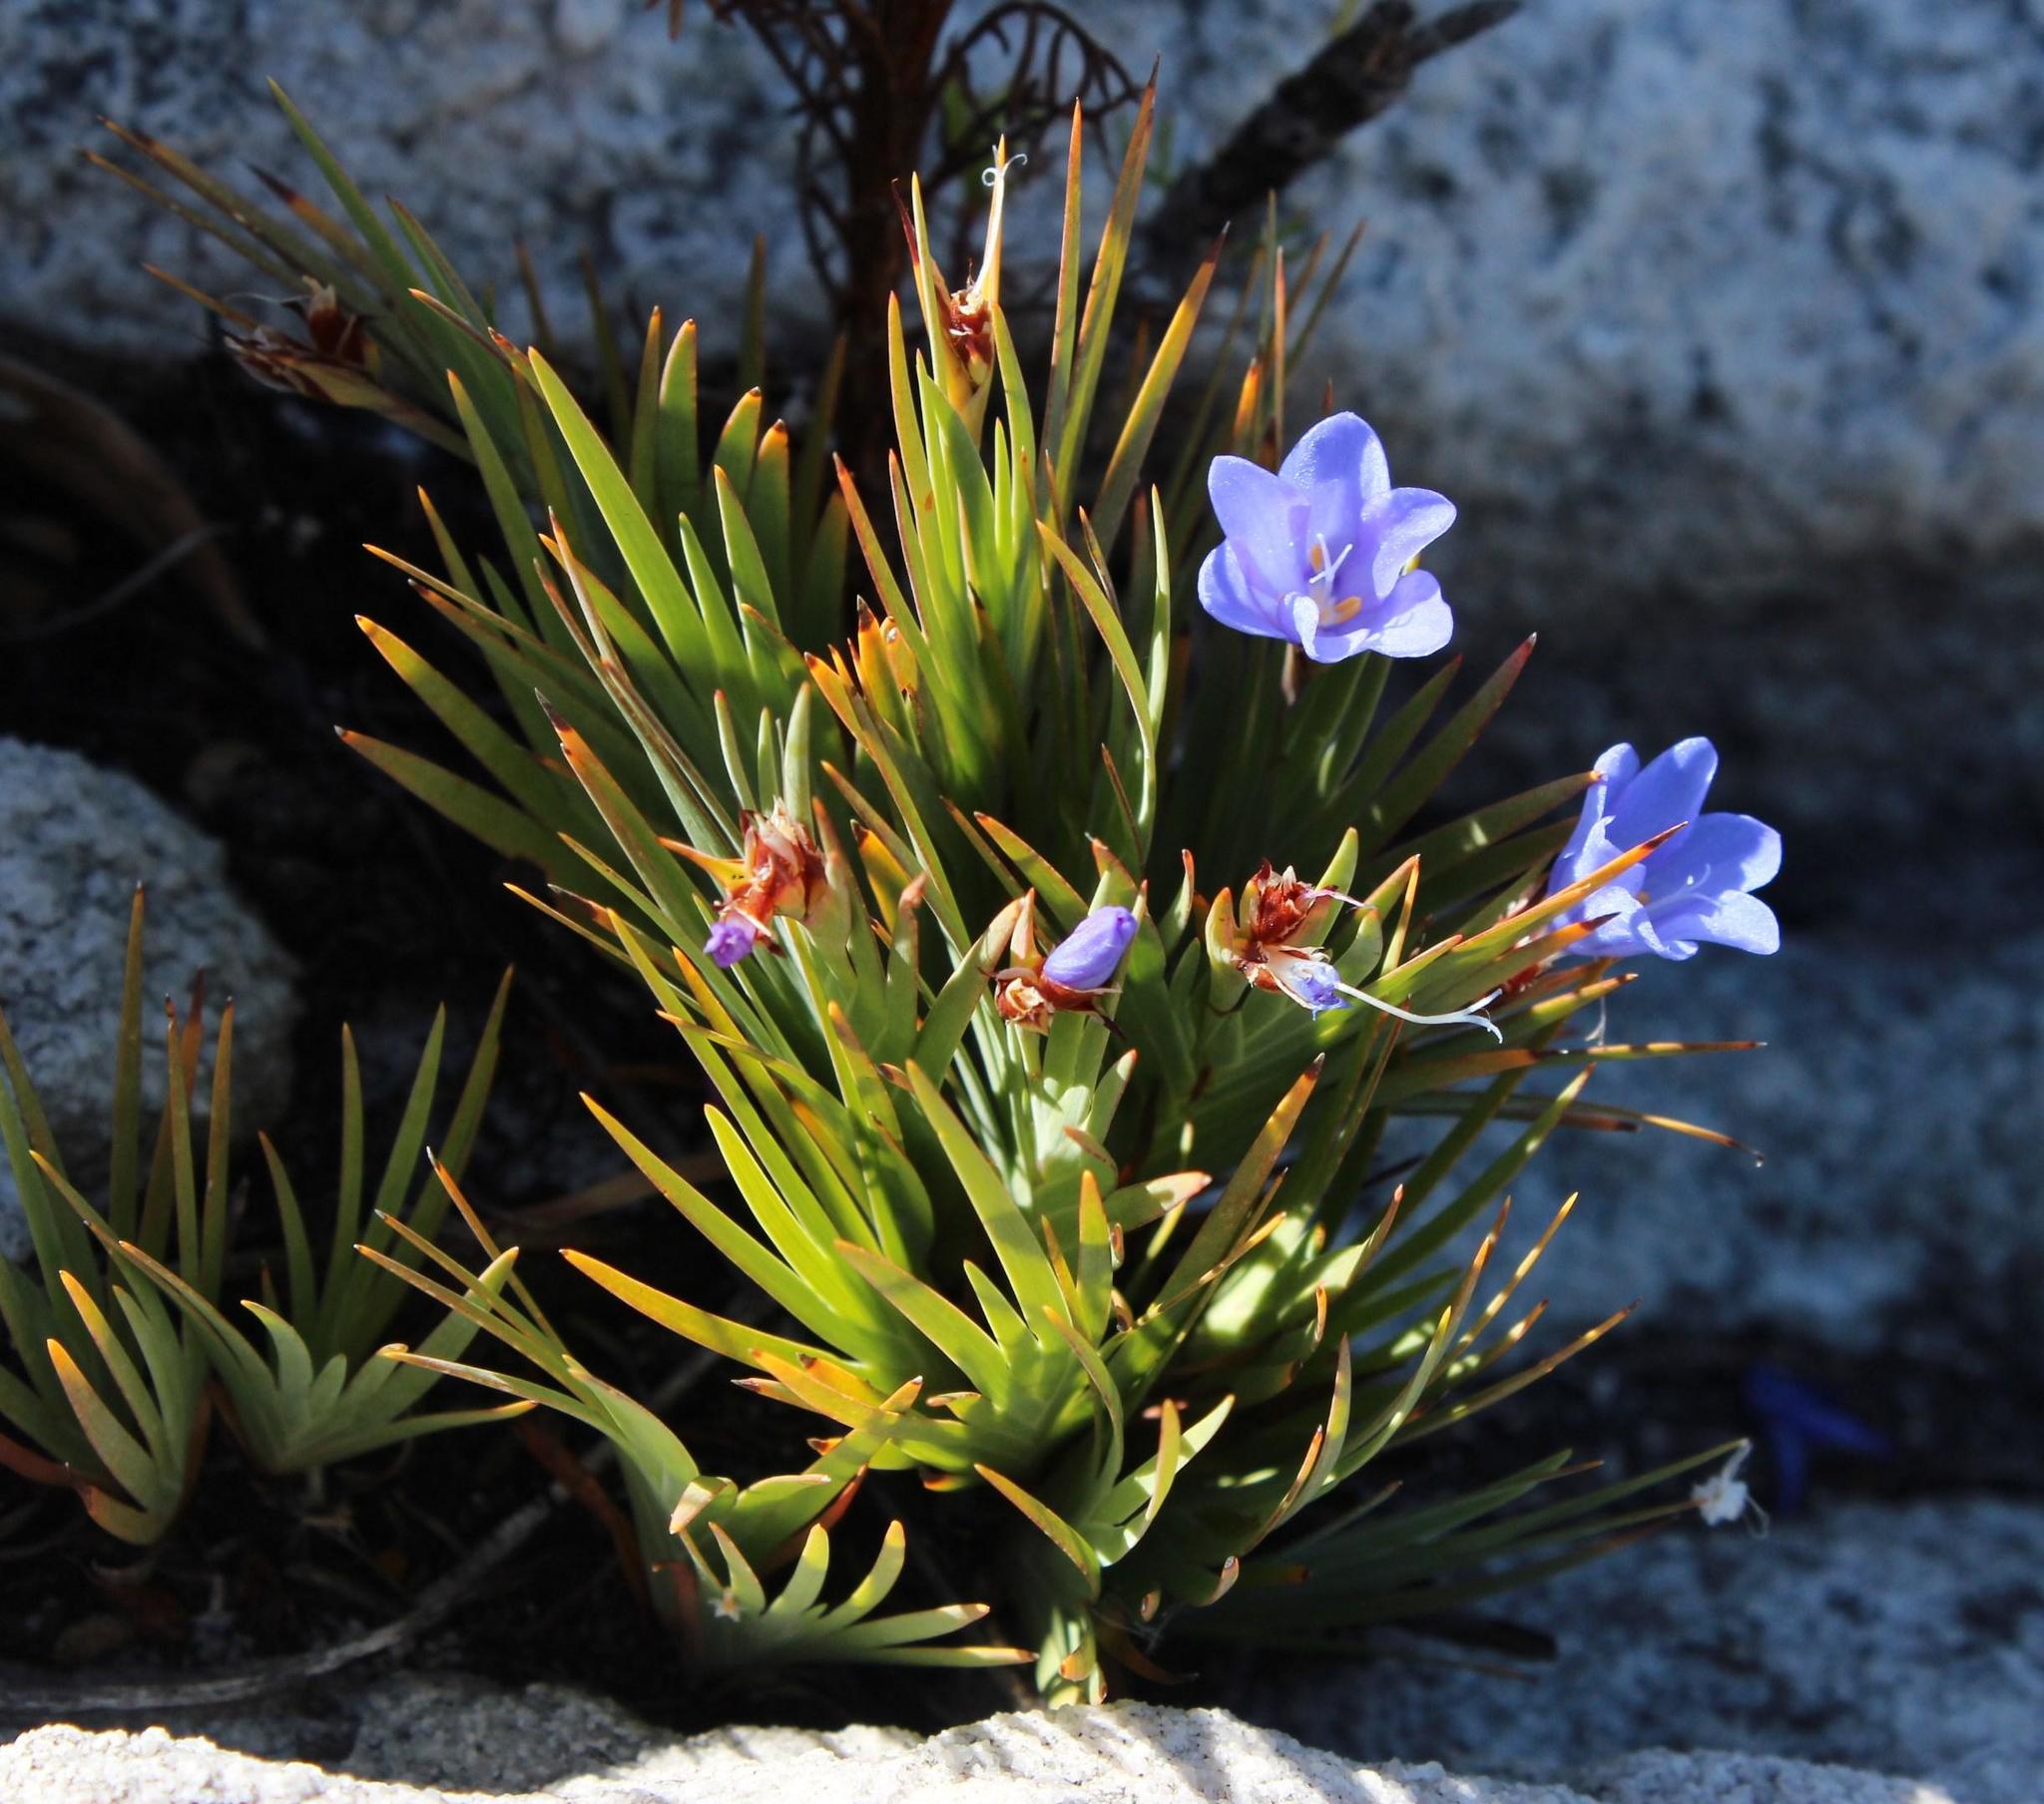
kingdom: Plantae
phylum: Tracheophyta
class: Liliopsida
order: Asparagales
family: Iridaceae
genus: Nivenia
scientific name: Nivenia levynsiae
